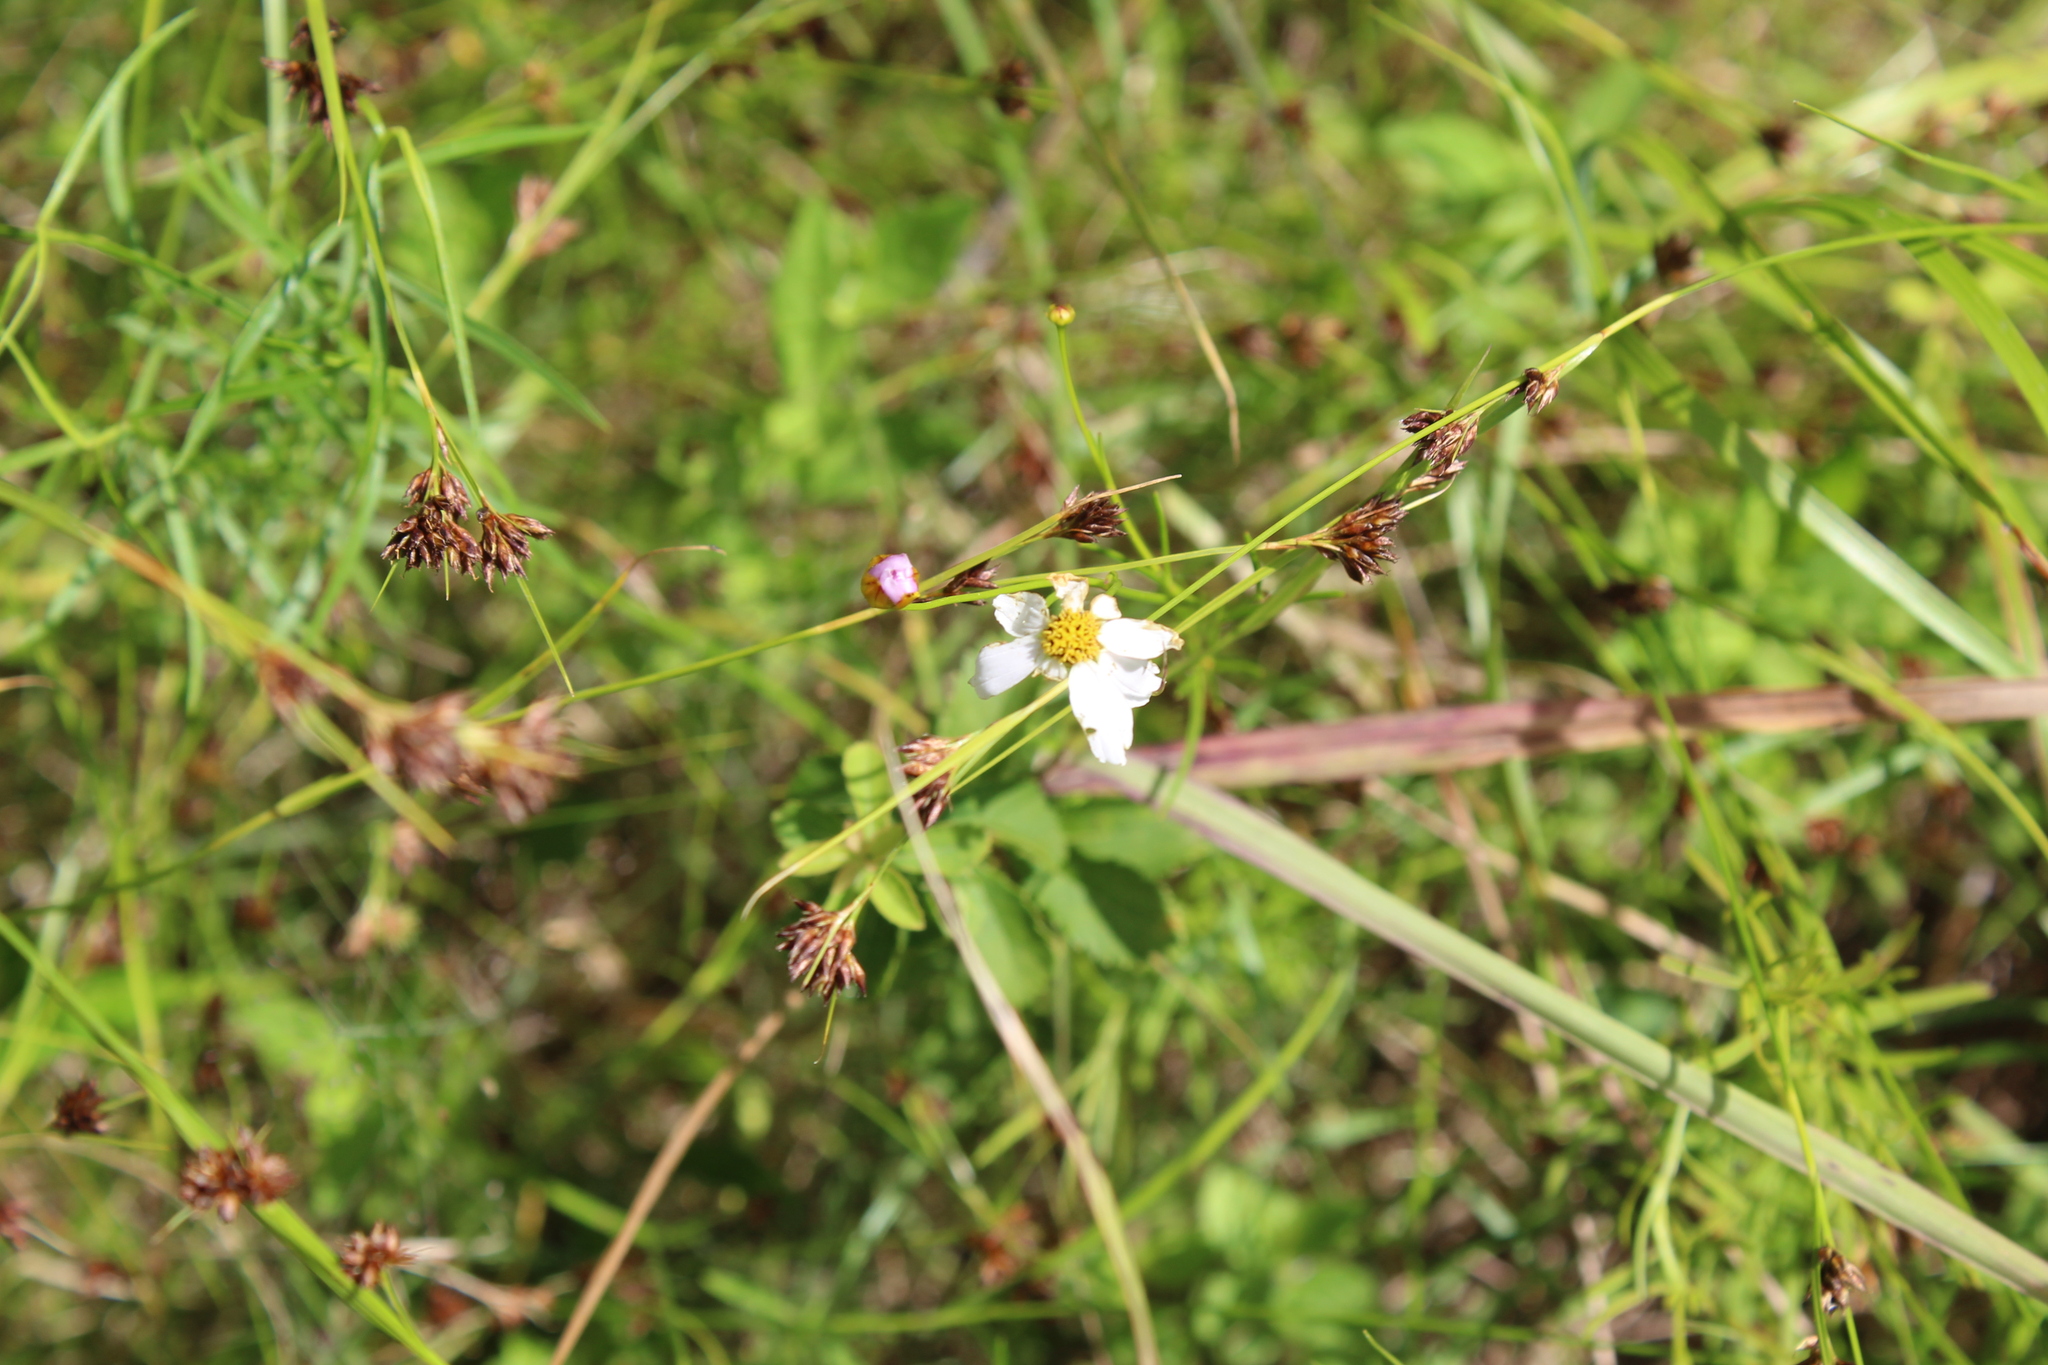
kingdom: Plantae
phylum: Tracheophyta
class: Magnoliopsida
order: Asterales
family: Asteraceae
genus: Coreopsis
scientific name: Coreopsis rosea
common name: Pink coreopsis
